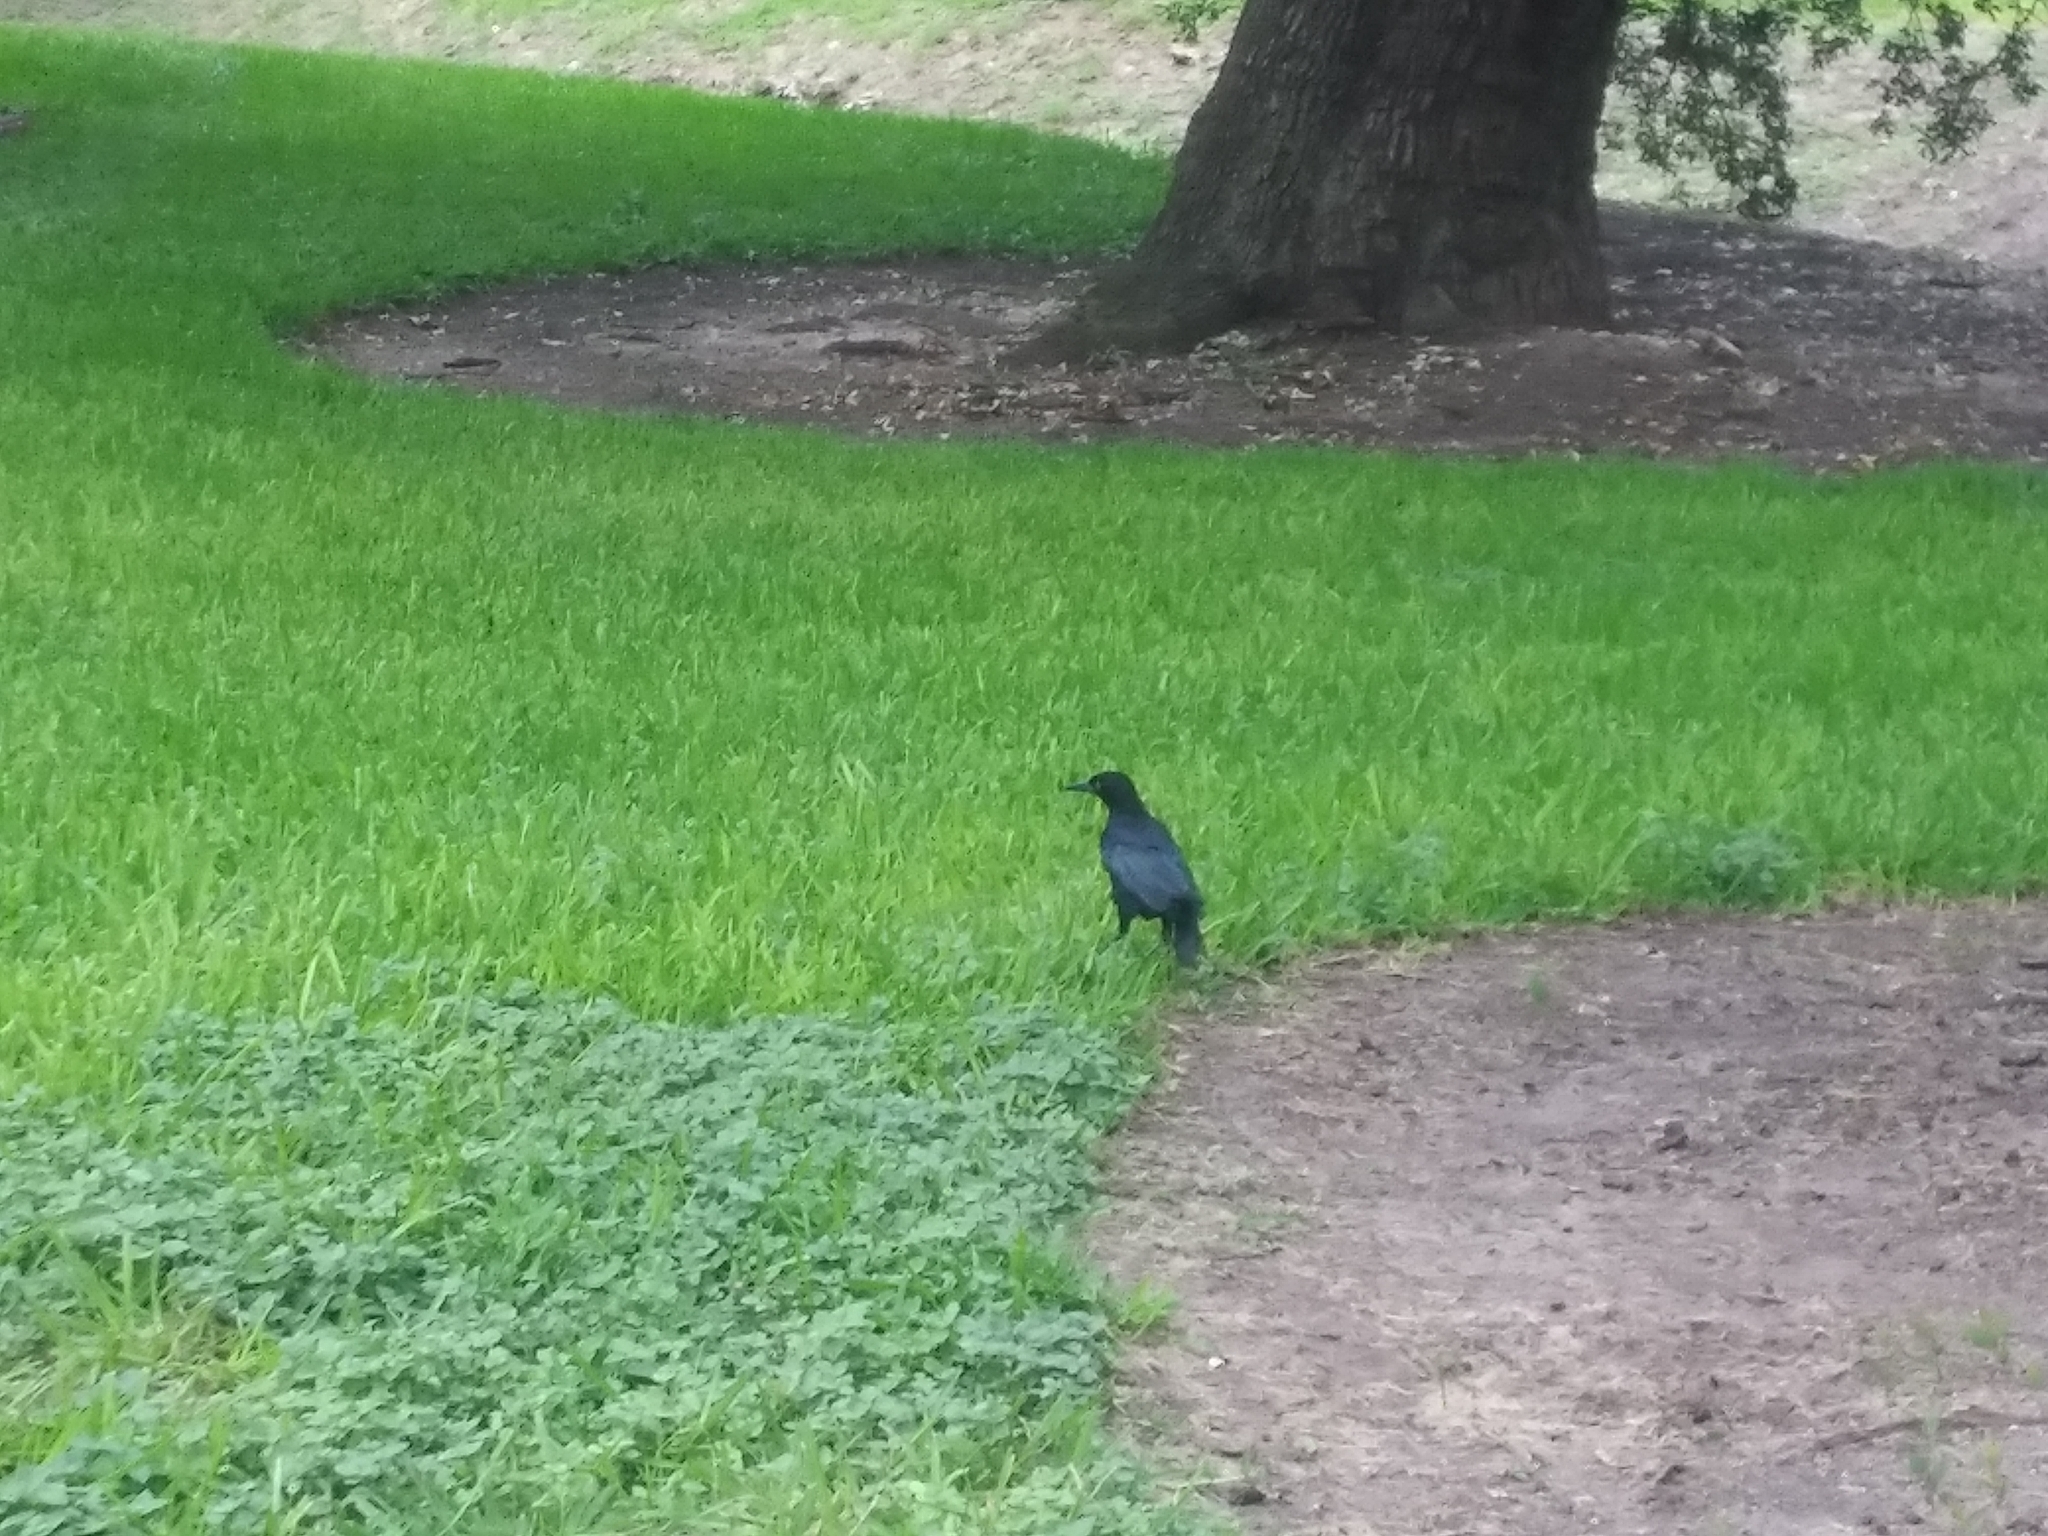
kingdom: Animalia
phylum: Chordata
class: Aves
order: Passeriformes
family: Icteridae
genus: Quiscalus
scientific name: Quiscalus mexicanus
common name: Great-tailed grackle
